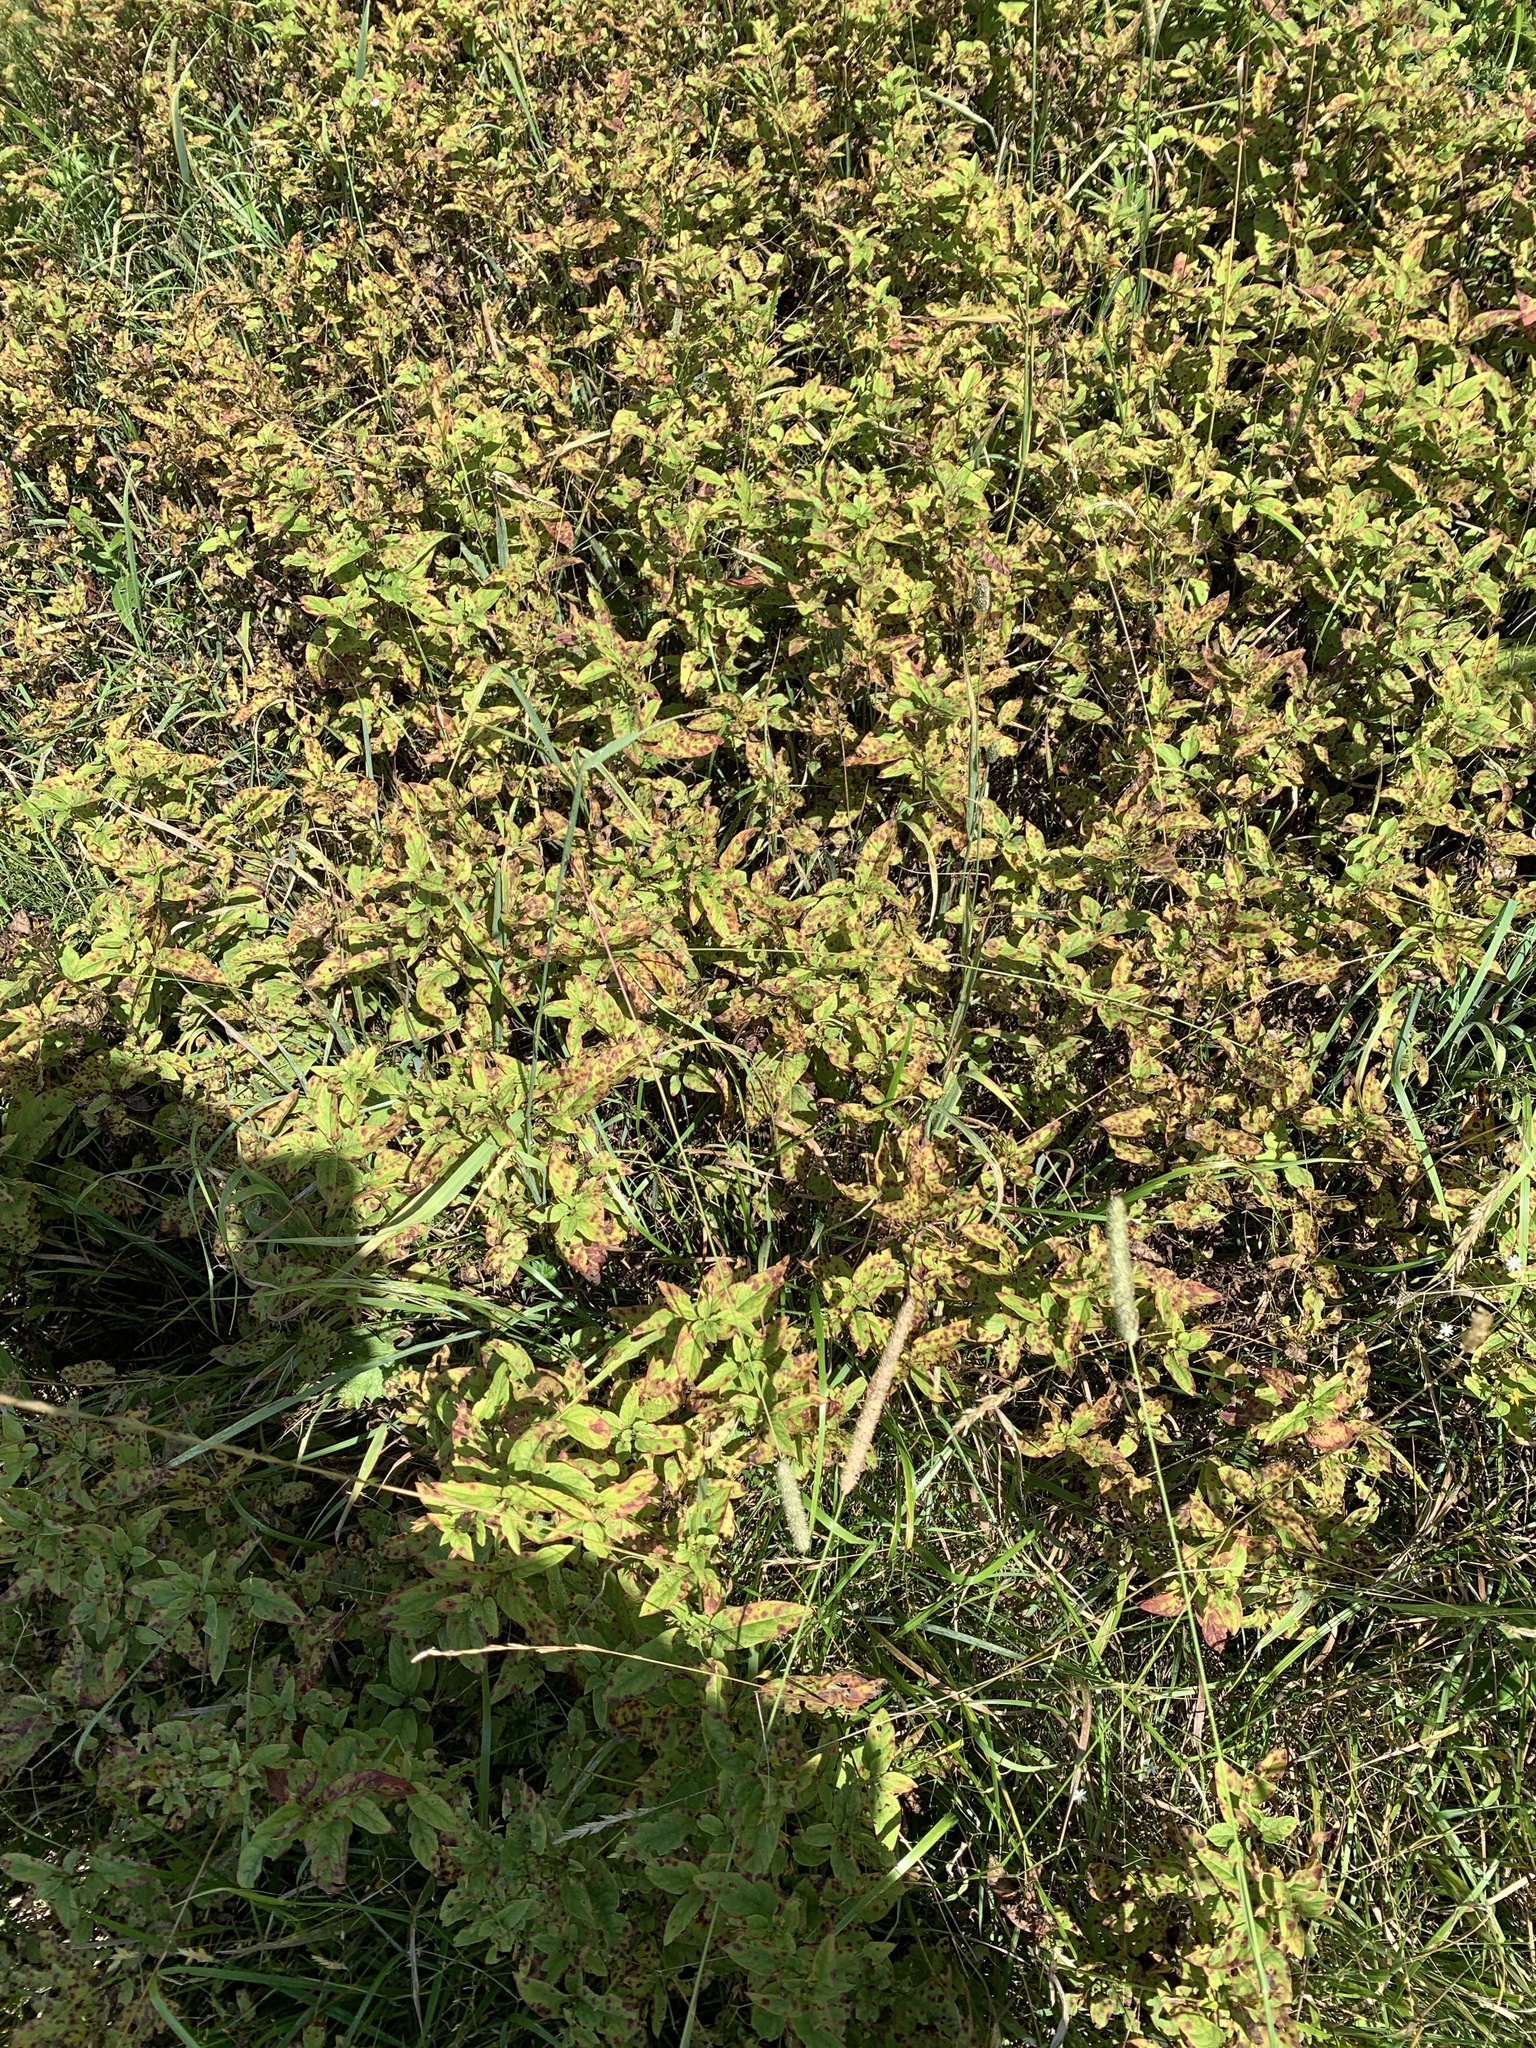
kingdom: Plantae
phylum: Tracheophyta
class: Magnoliopsida
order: Ericales
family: Primulaceae
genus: Lysimachia
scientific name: Lysimachia ciliata
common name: Fringed loosestrife
